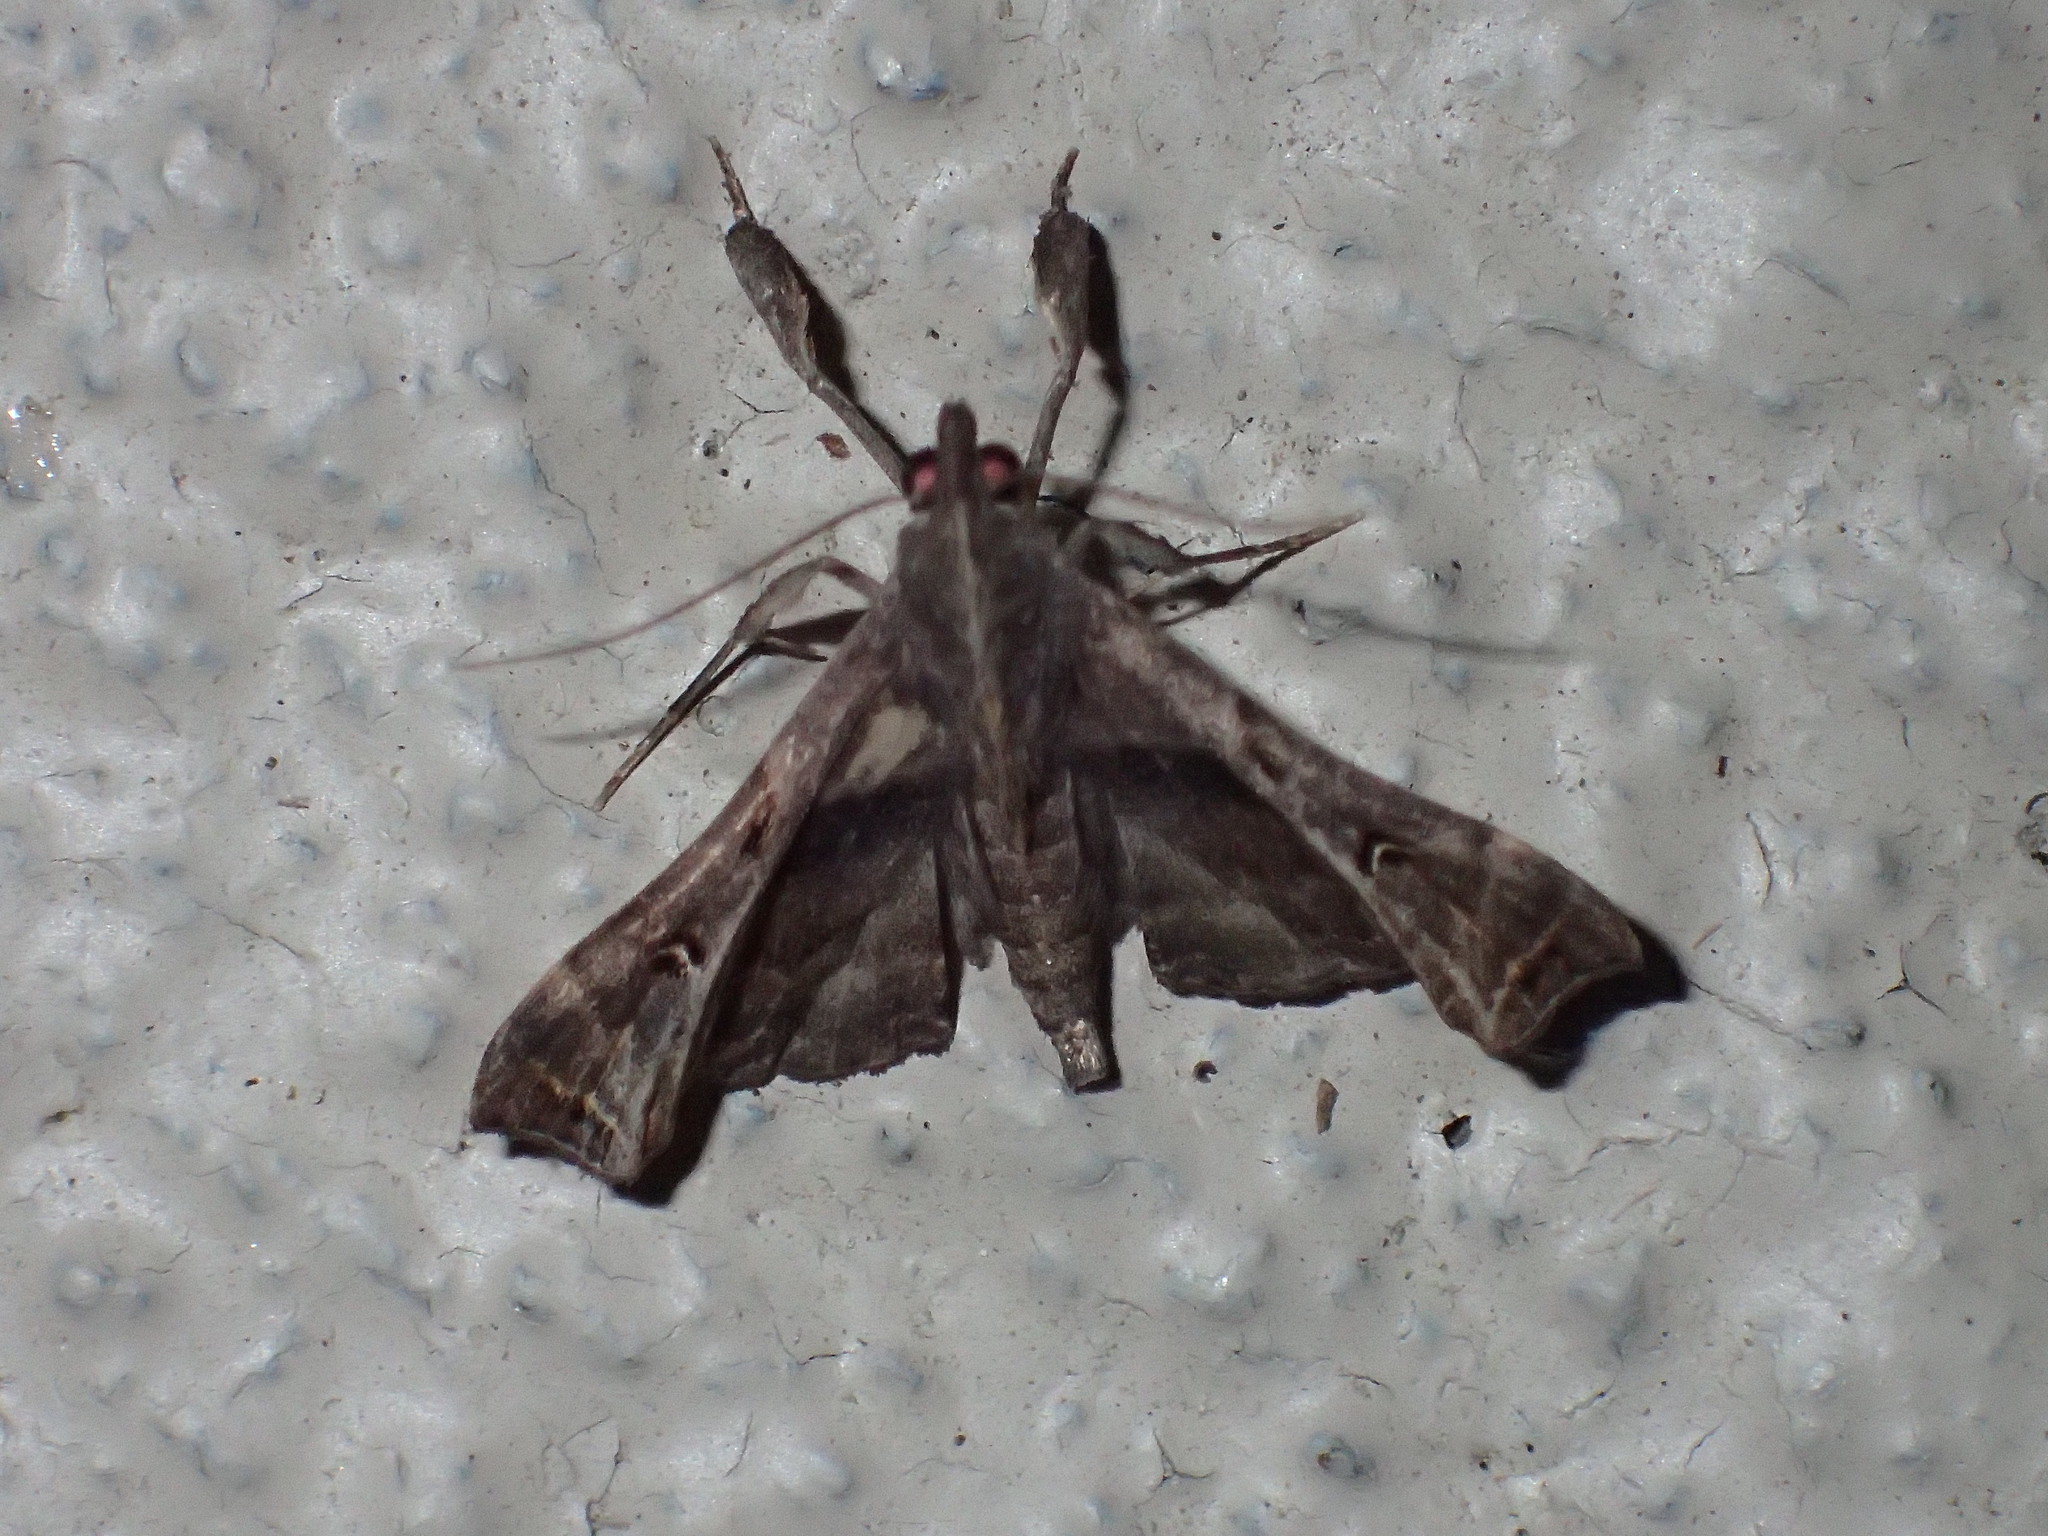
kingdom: Animalia
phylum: Arthropoda
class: Insecta
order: Lepidoptera
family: Erebidae
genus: Palthis
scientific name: Palthis asopialis
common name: Faint-spotted palthis moth
